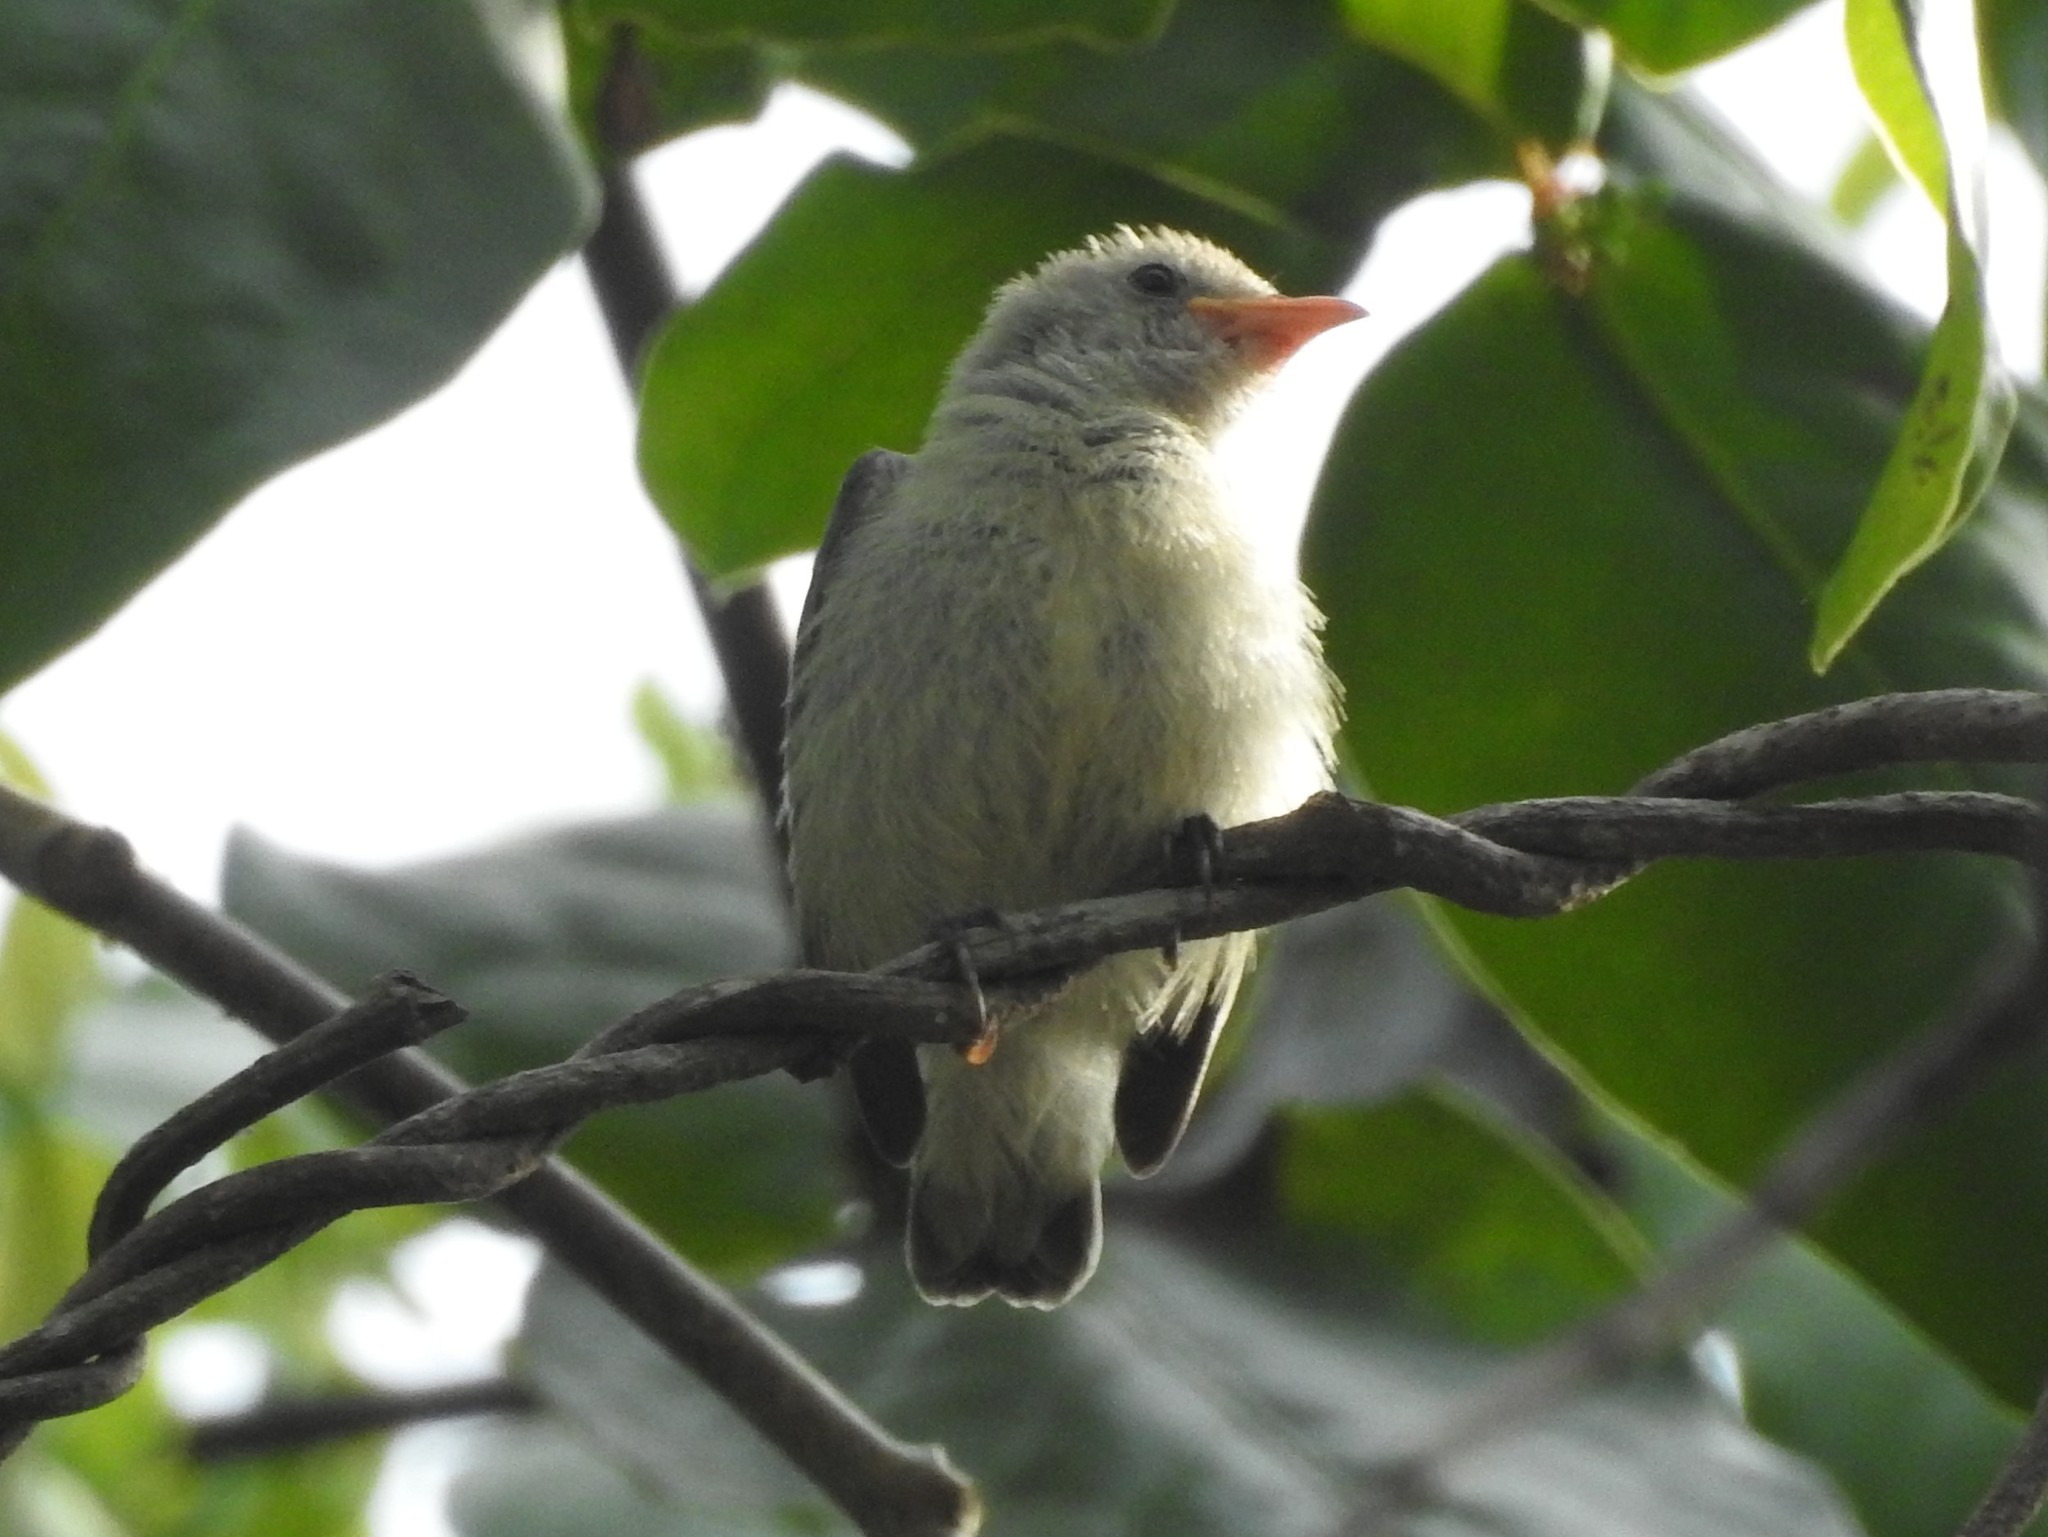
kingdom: Animalia
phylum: Chordata
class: Aves
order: Passeriformes
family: Dicaeidae
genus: Dicaeum
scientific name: Dicaeum erythrorhynchos
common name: Pale-billed flowerpecker
